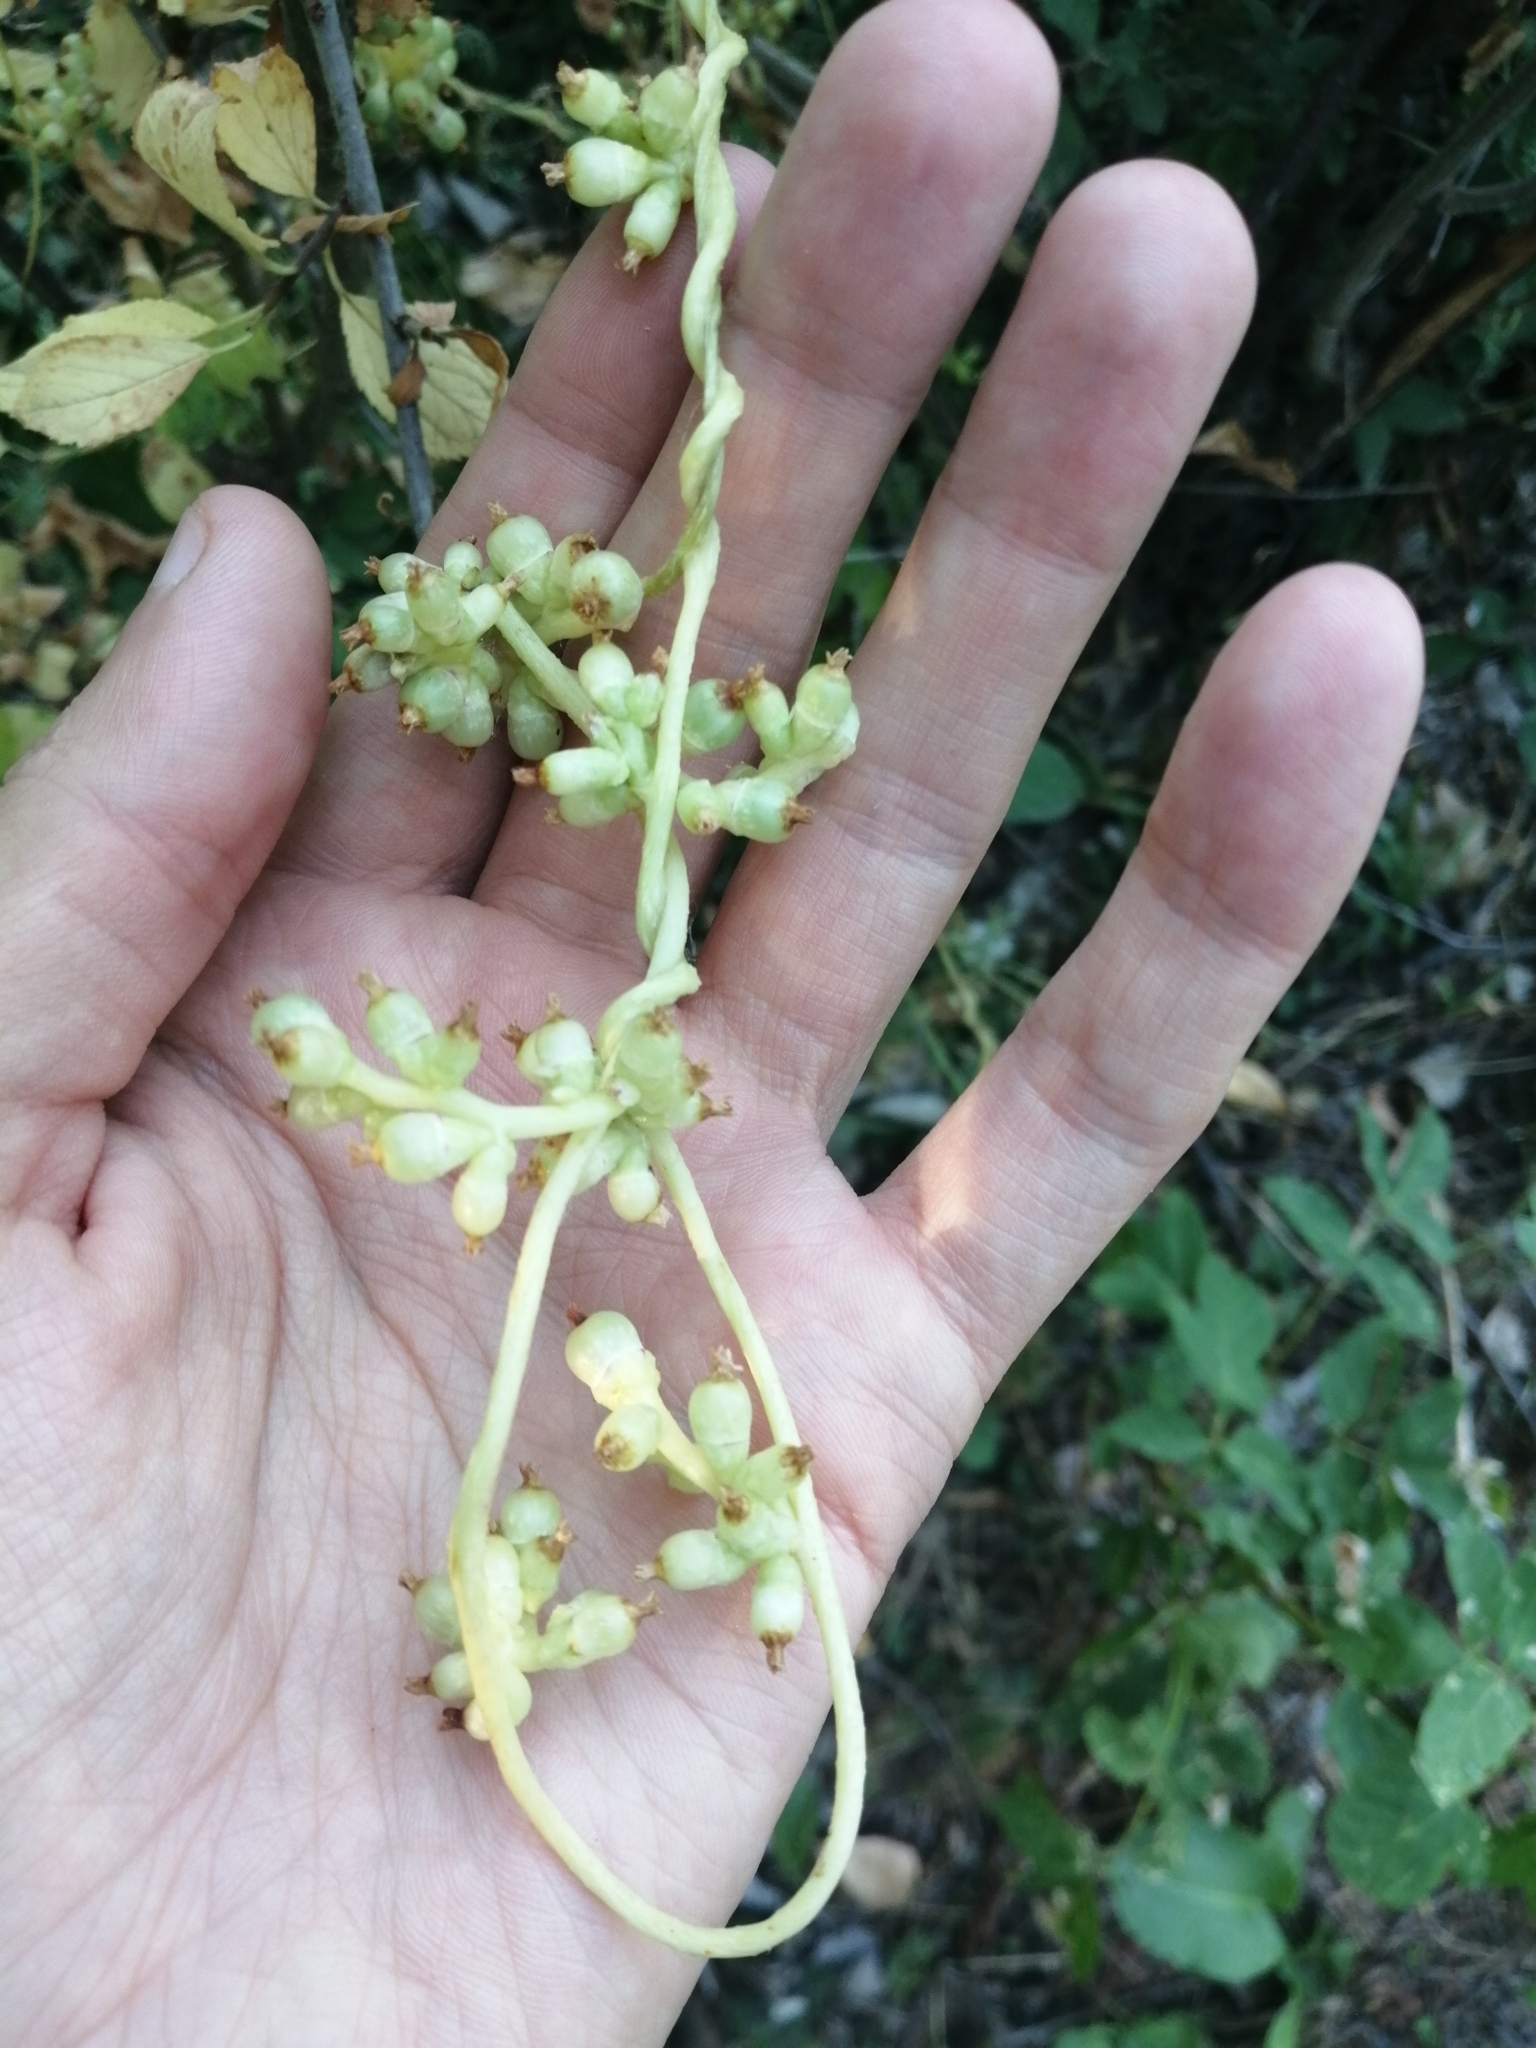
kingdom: Plantae
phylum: Tracheophyta
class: Magnoliopsida
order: Solanales
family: Convolvulaceae
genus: Cuscuta
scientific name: Cuscuta lupuliformis
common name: Hop dodder
